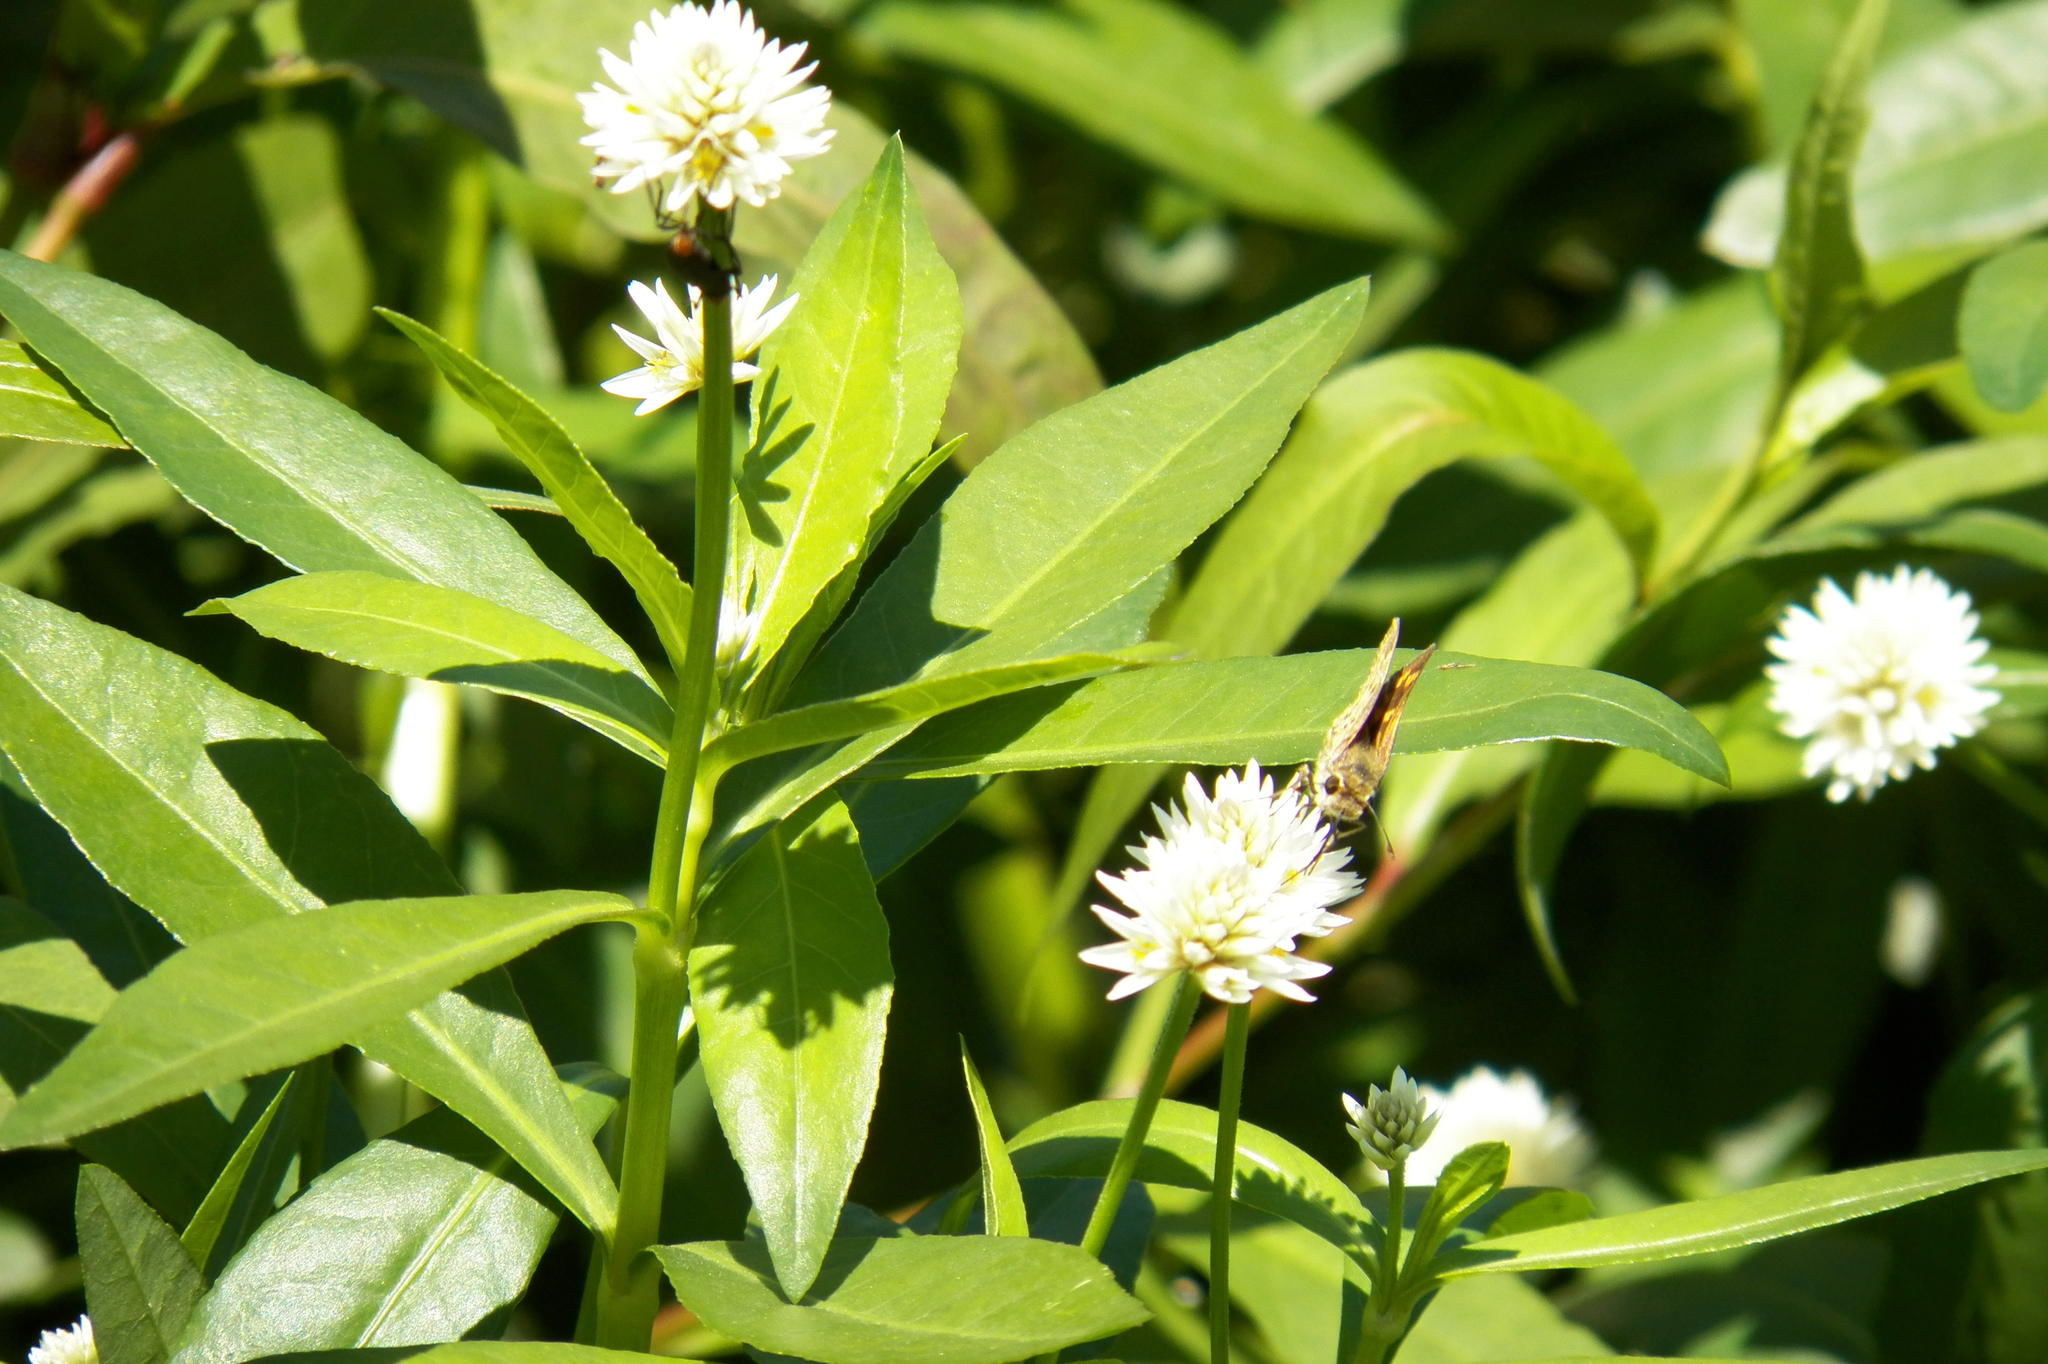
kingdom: Plantae
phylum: Tracheophyta
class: Magnoliopsida
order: Caryophyllales
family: Amaranthaceae
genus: Alternanthera
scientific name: Alternanthera philoxeroides
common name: Alligatorweed
